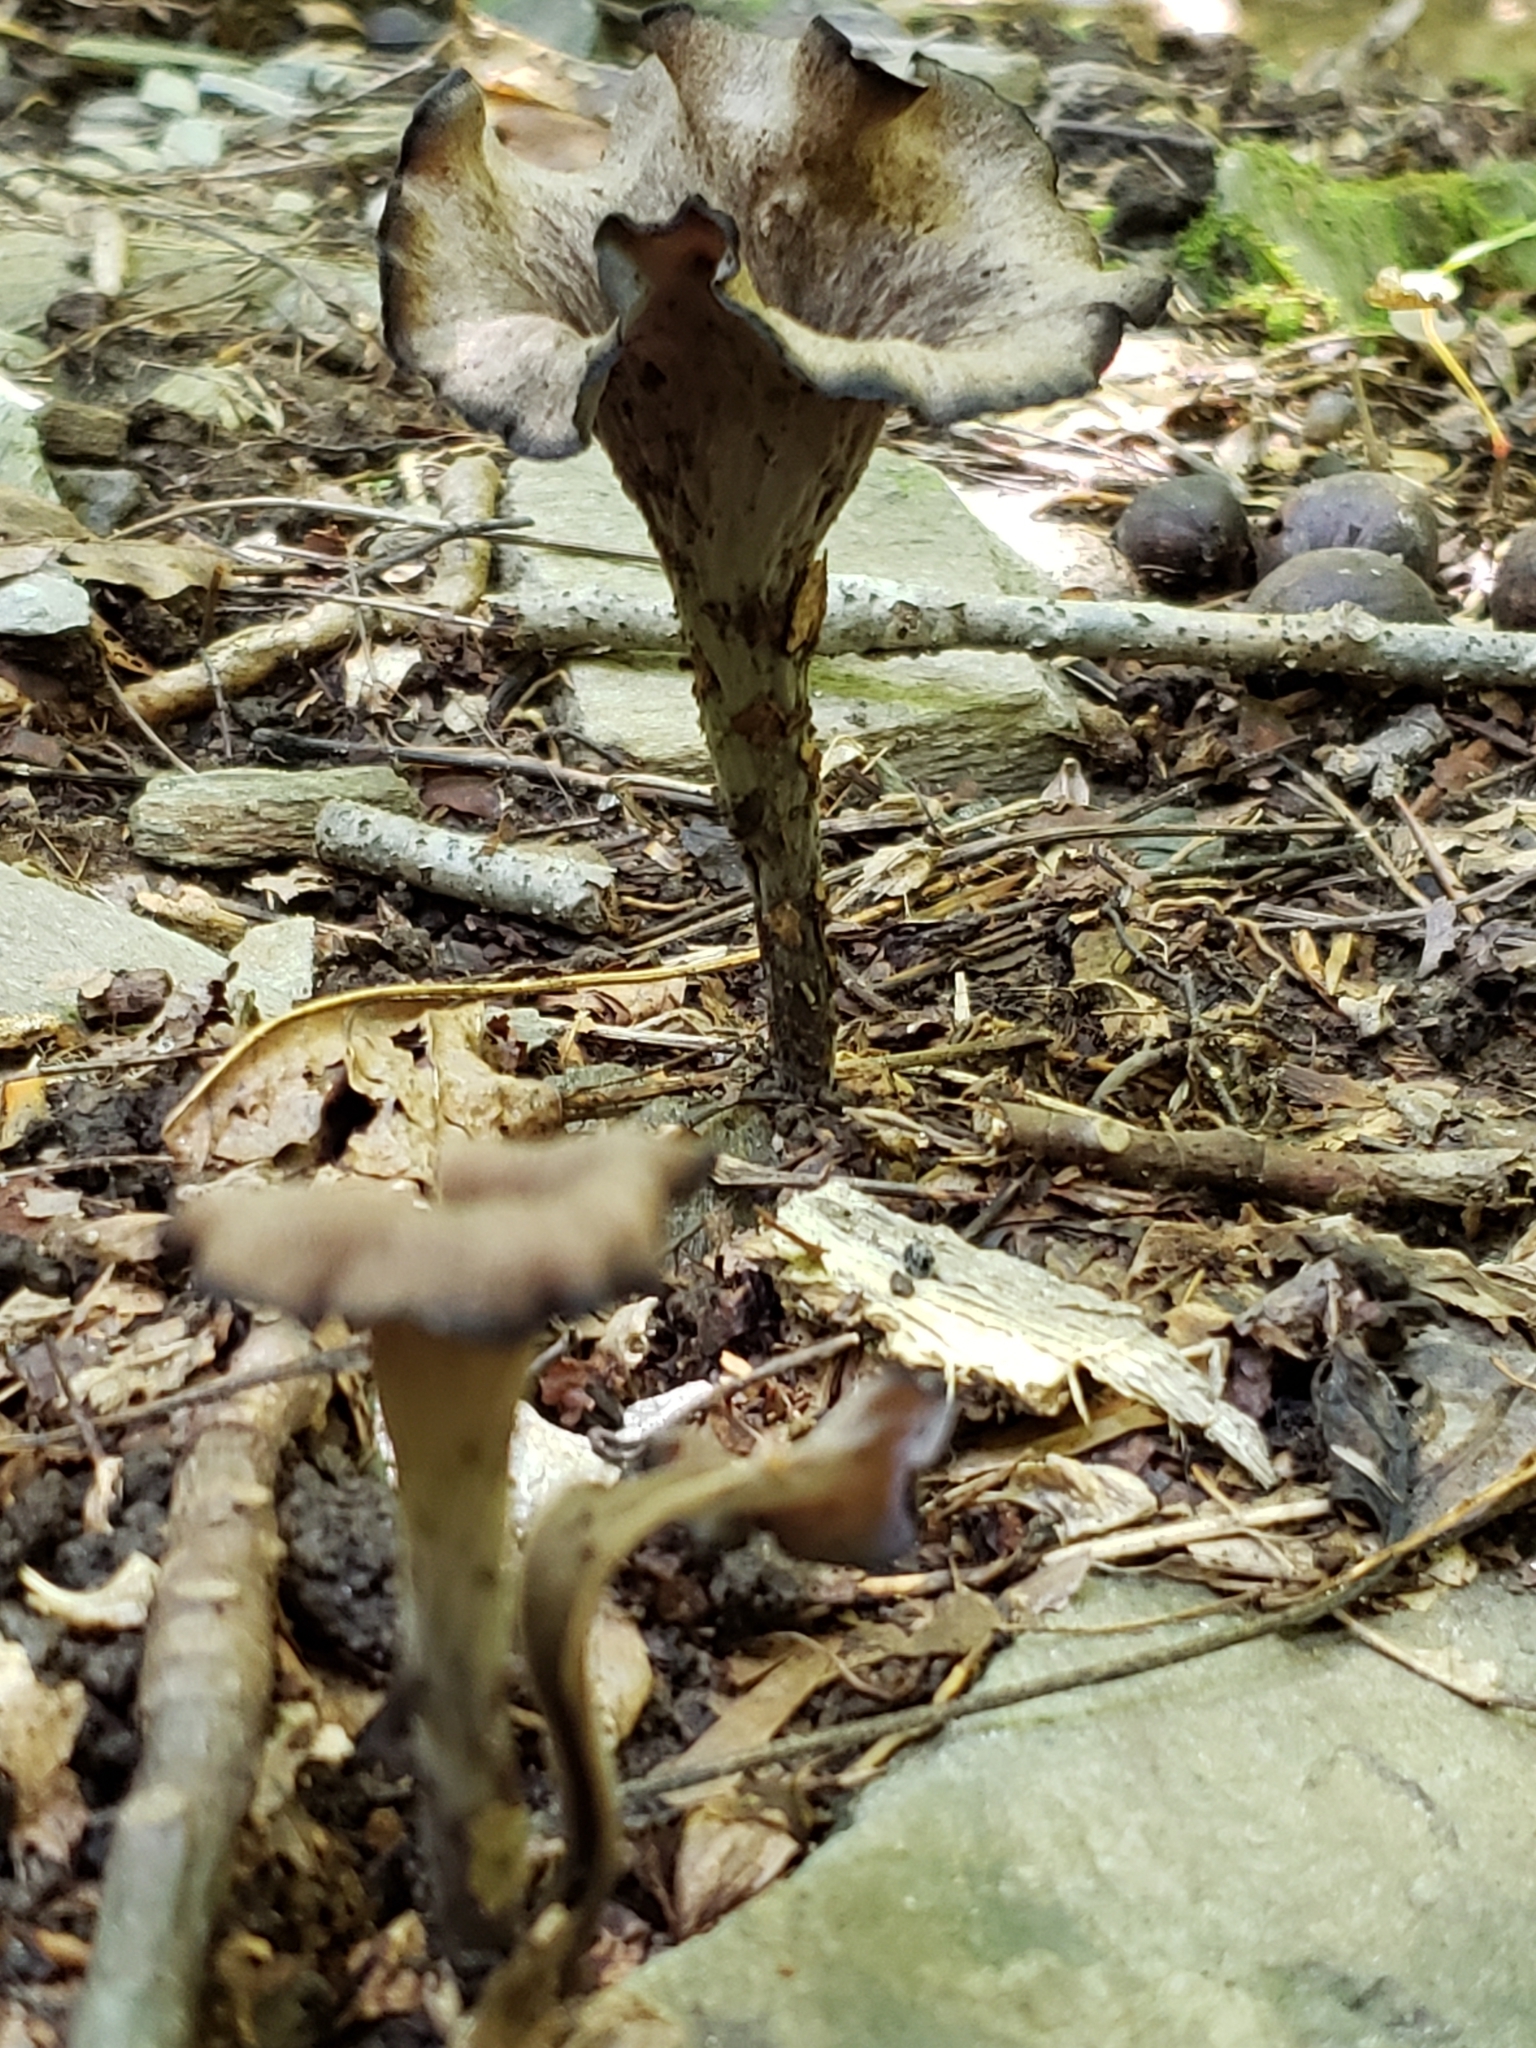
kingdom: Fungi
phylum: Basidiomycota
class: Agaricomycetes
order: Cantharellales
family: Hydnaceae
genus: Craterellus
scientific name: Craterellus cornucopioides
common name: Horn of plenty
